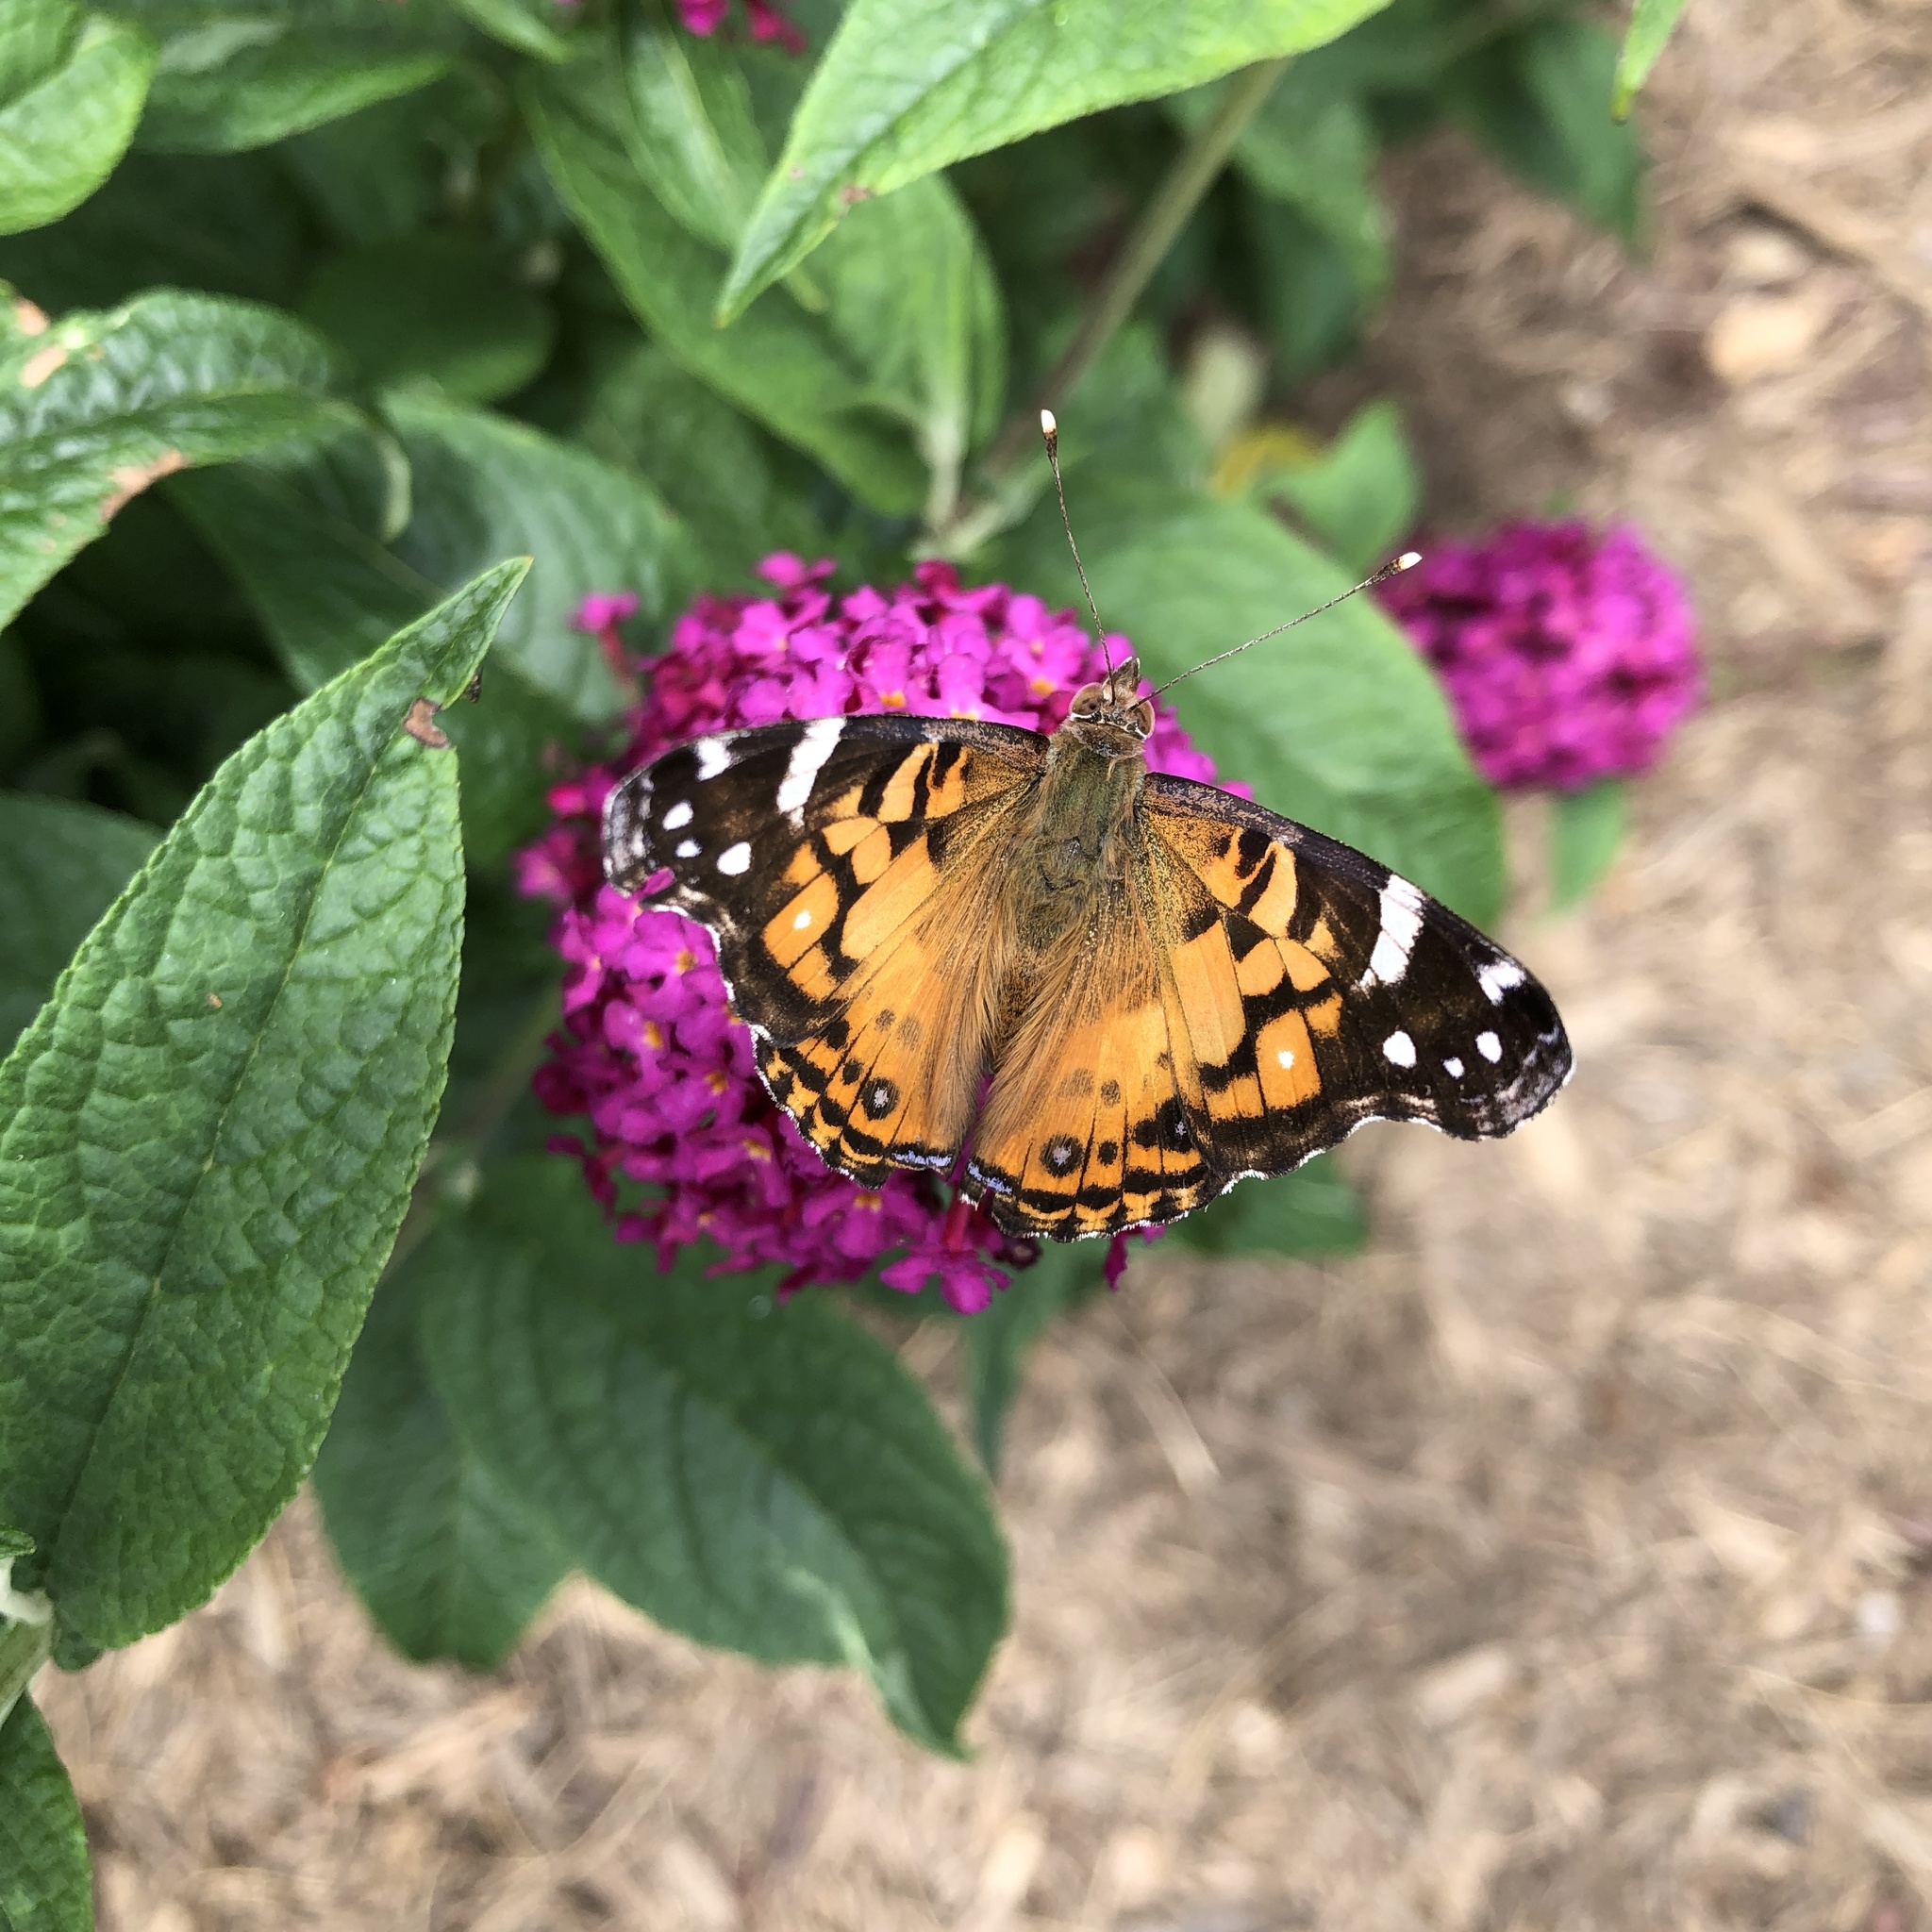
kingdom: Animalia
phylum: Arthropoda
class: Insecta
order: Lepidoptera
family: Nymphalidae
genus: Vanessa
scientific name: Vanessa virginiensis
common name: American lady
